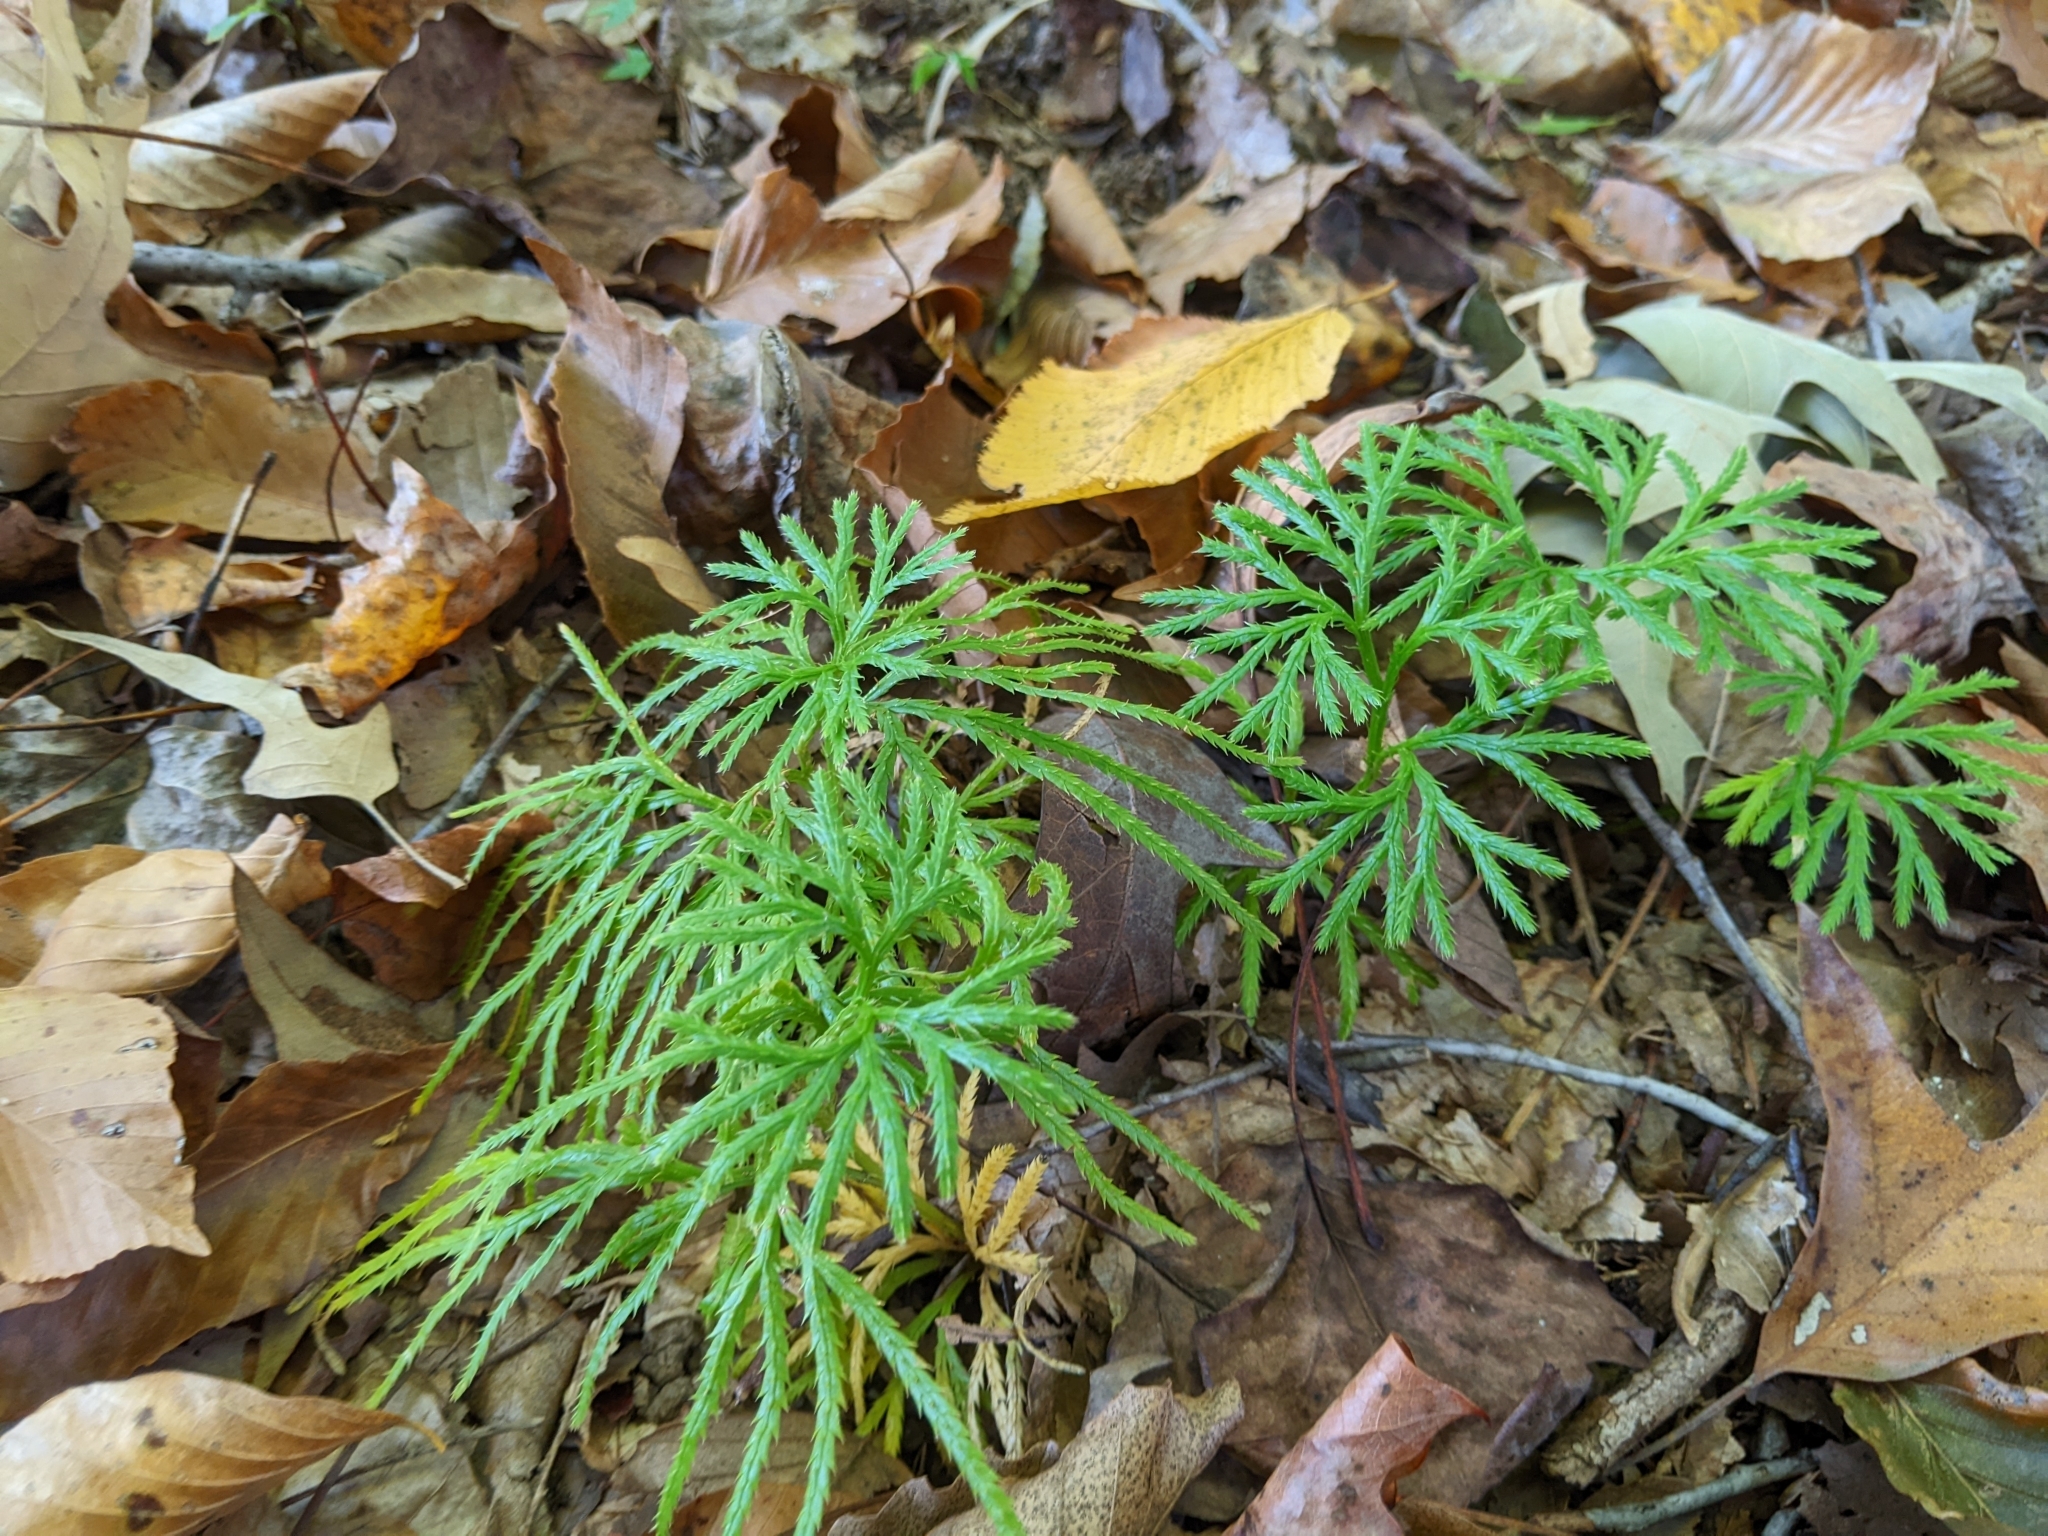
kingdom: Plantae
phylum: Tracheophyta
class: Lycopodiopsida
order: Lycopodiales
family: Lycopodiaceae
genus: Diphasiastrum
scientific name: Diphasiastrum digitatum
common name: Southern running-pine
